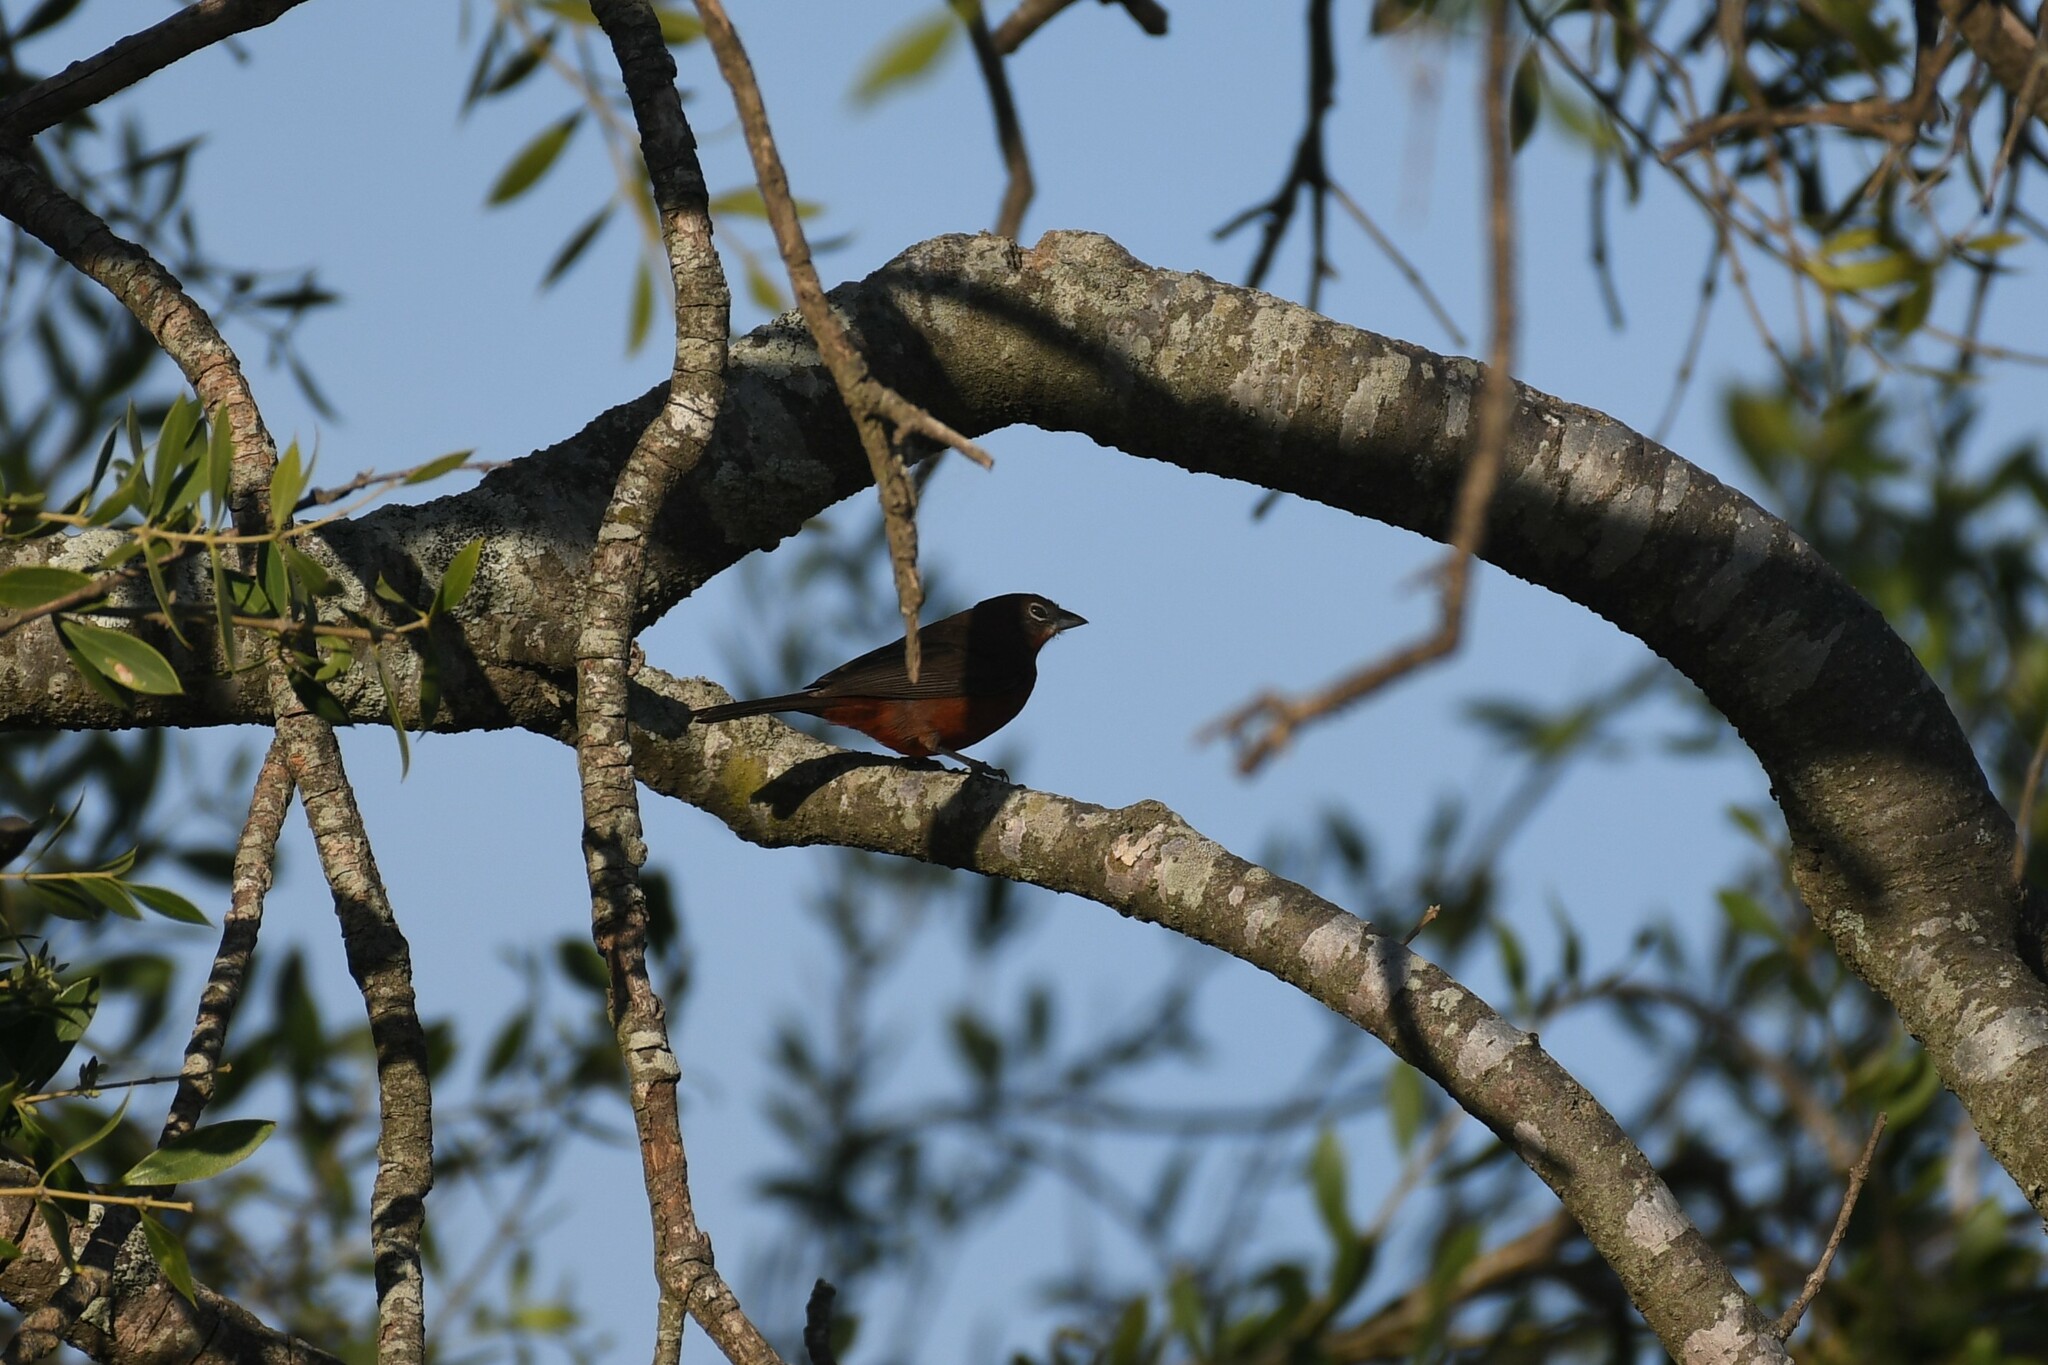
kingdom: Animalia
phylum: Chordata
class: Aves
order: Passeriformes
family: Thraupidae
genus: Coryphospingus
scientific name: Coryphospingus cucullatus
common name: Red pileated finch
